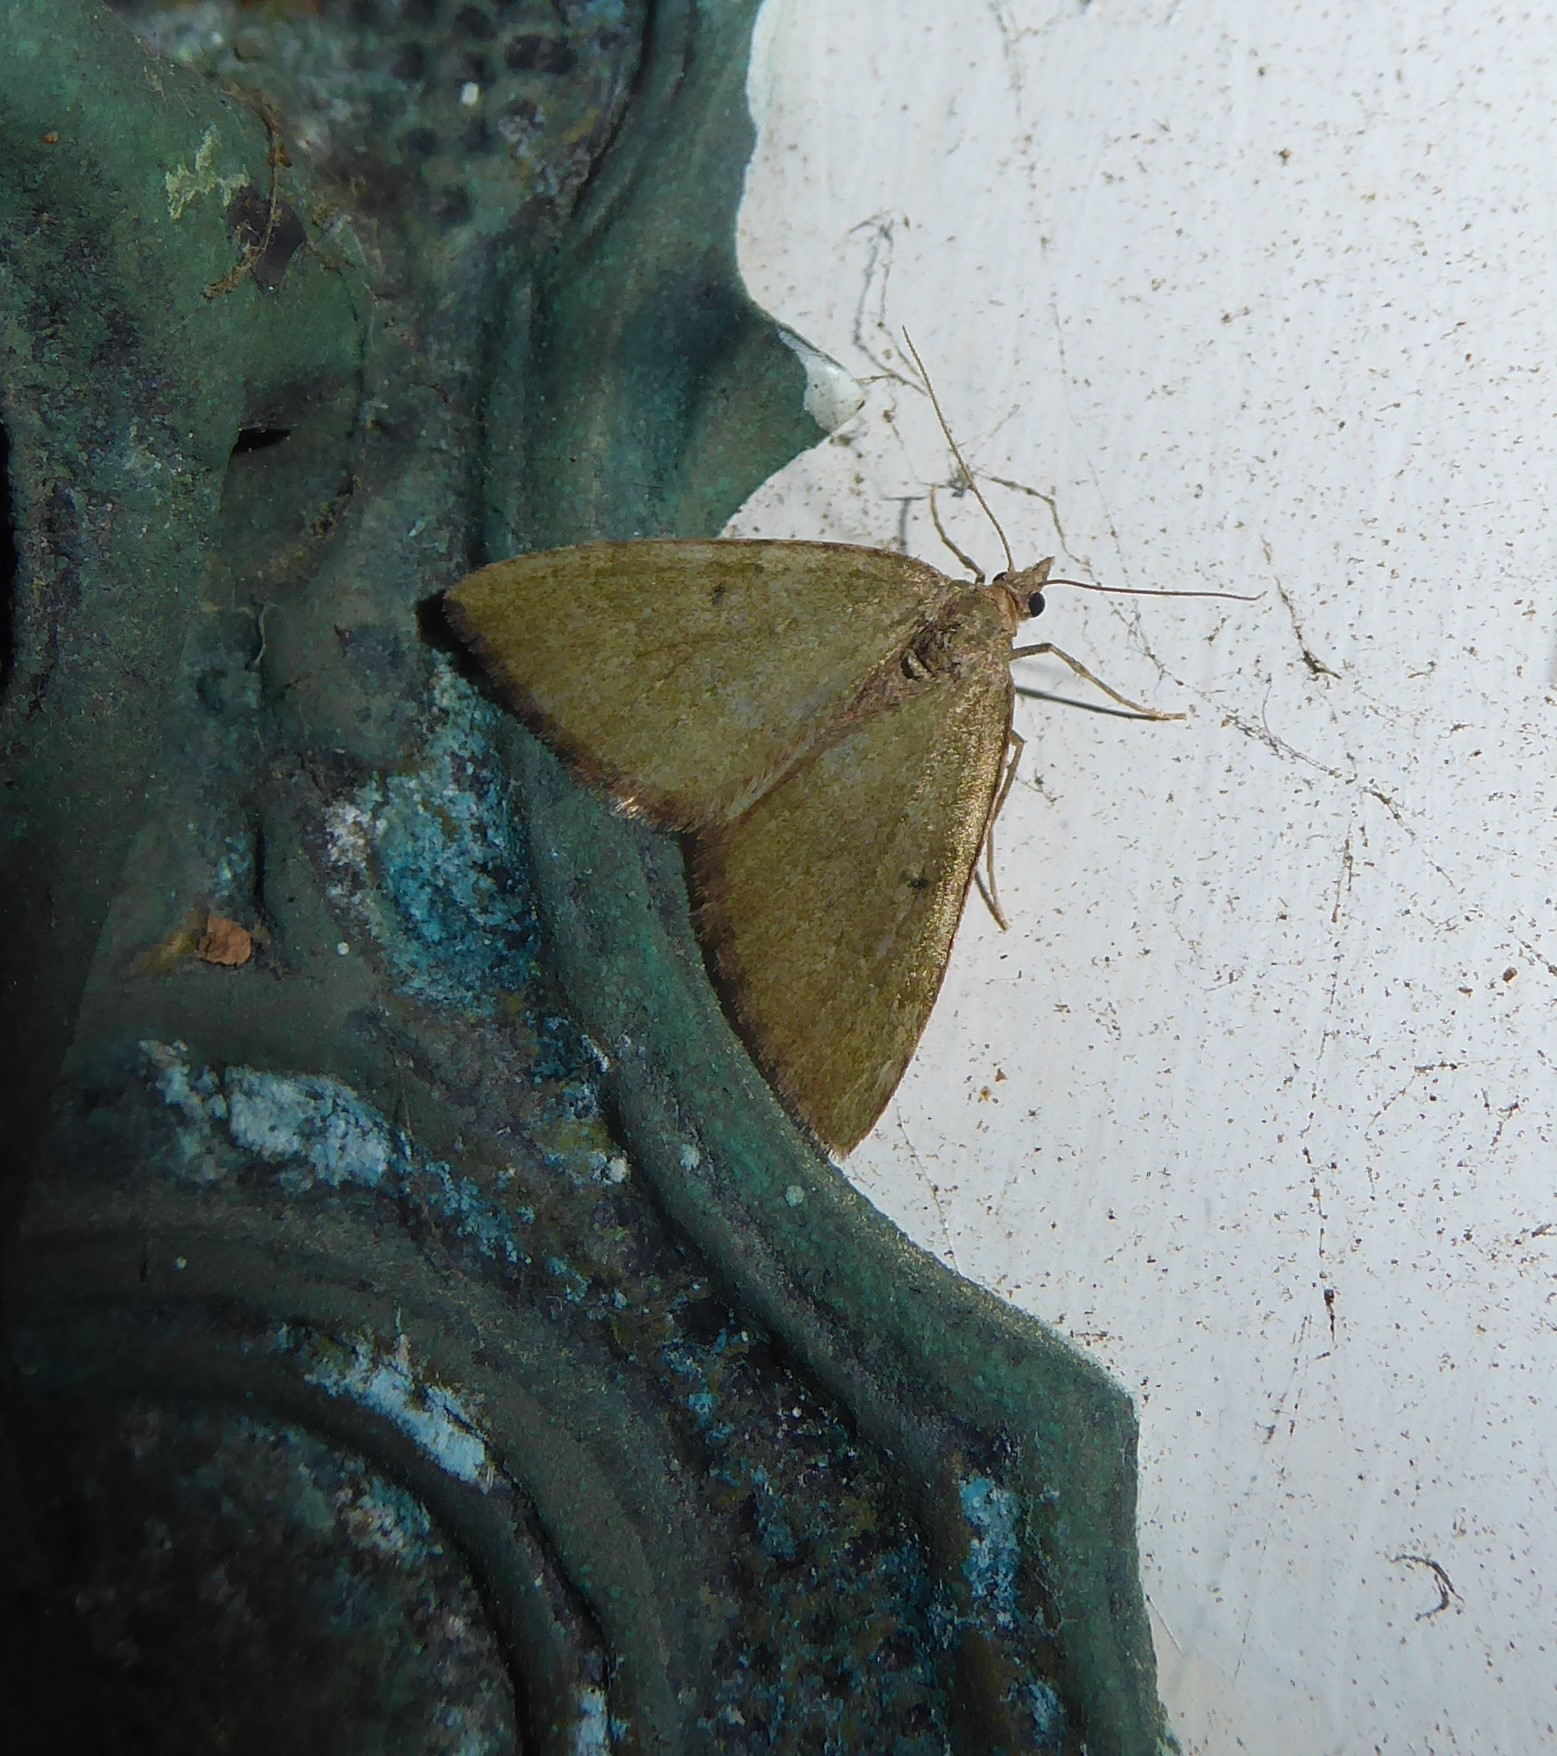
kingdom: Animalia
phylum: Arthropoda
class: Insecta
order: Lepidoptera
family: Geometridae
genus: Epyaxa
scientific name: Epyaxa rosearia
